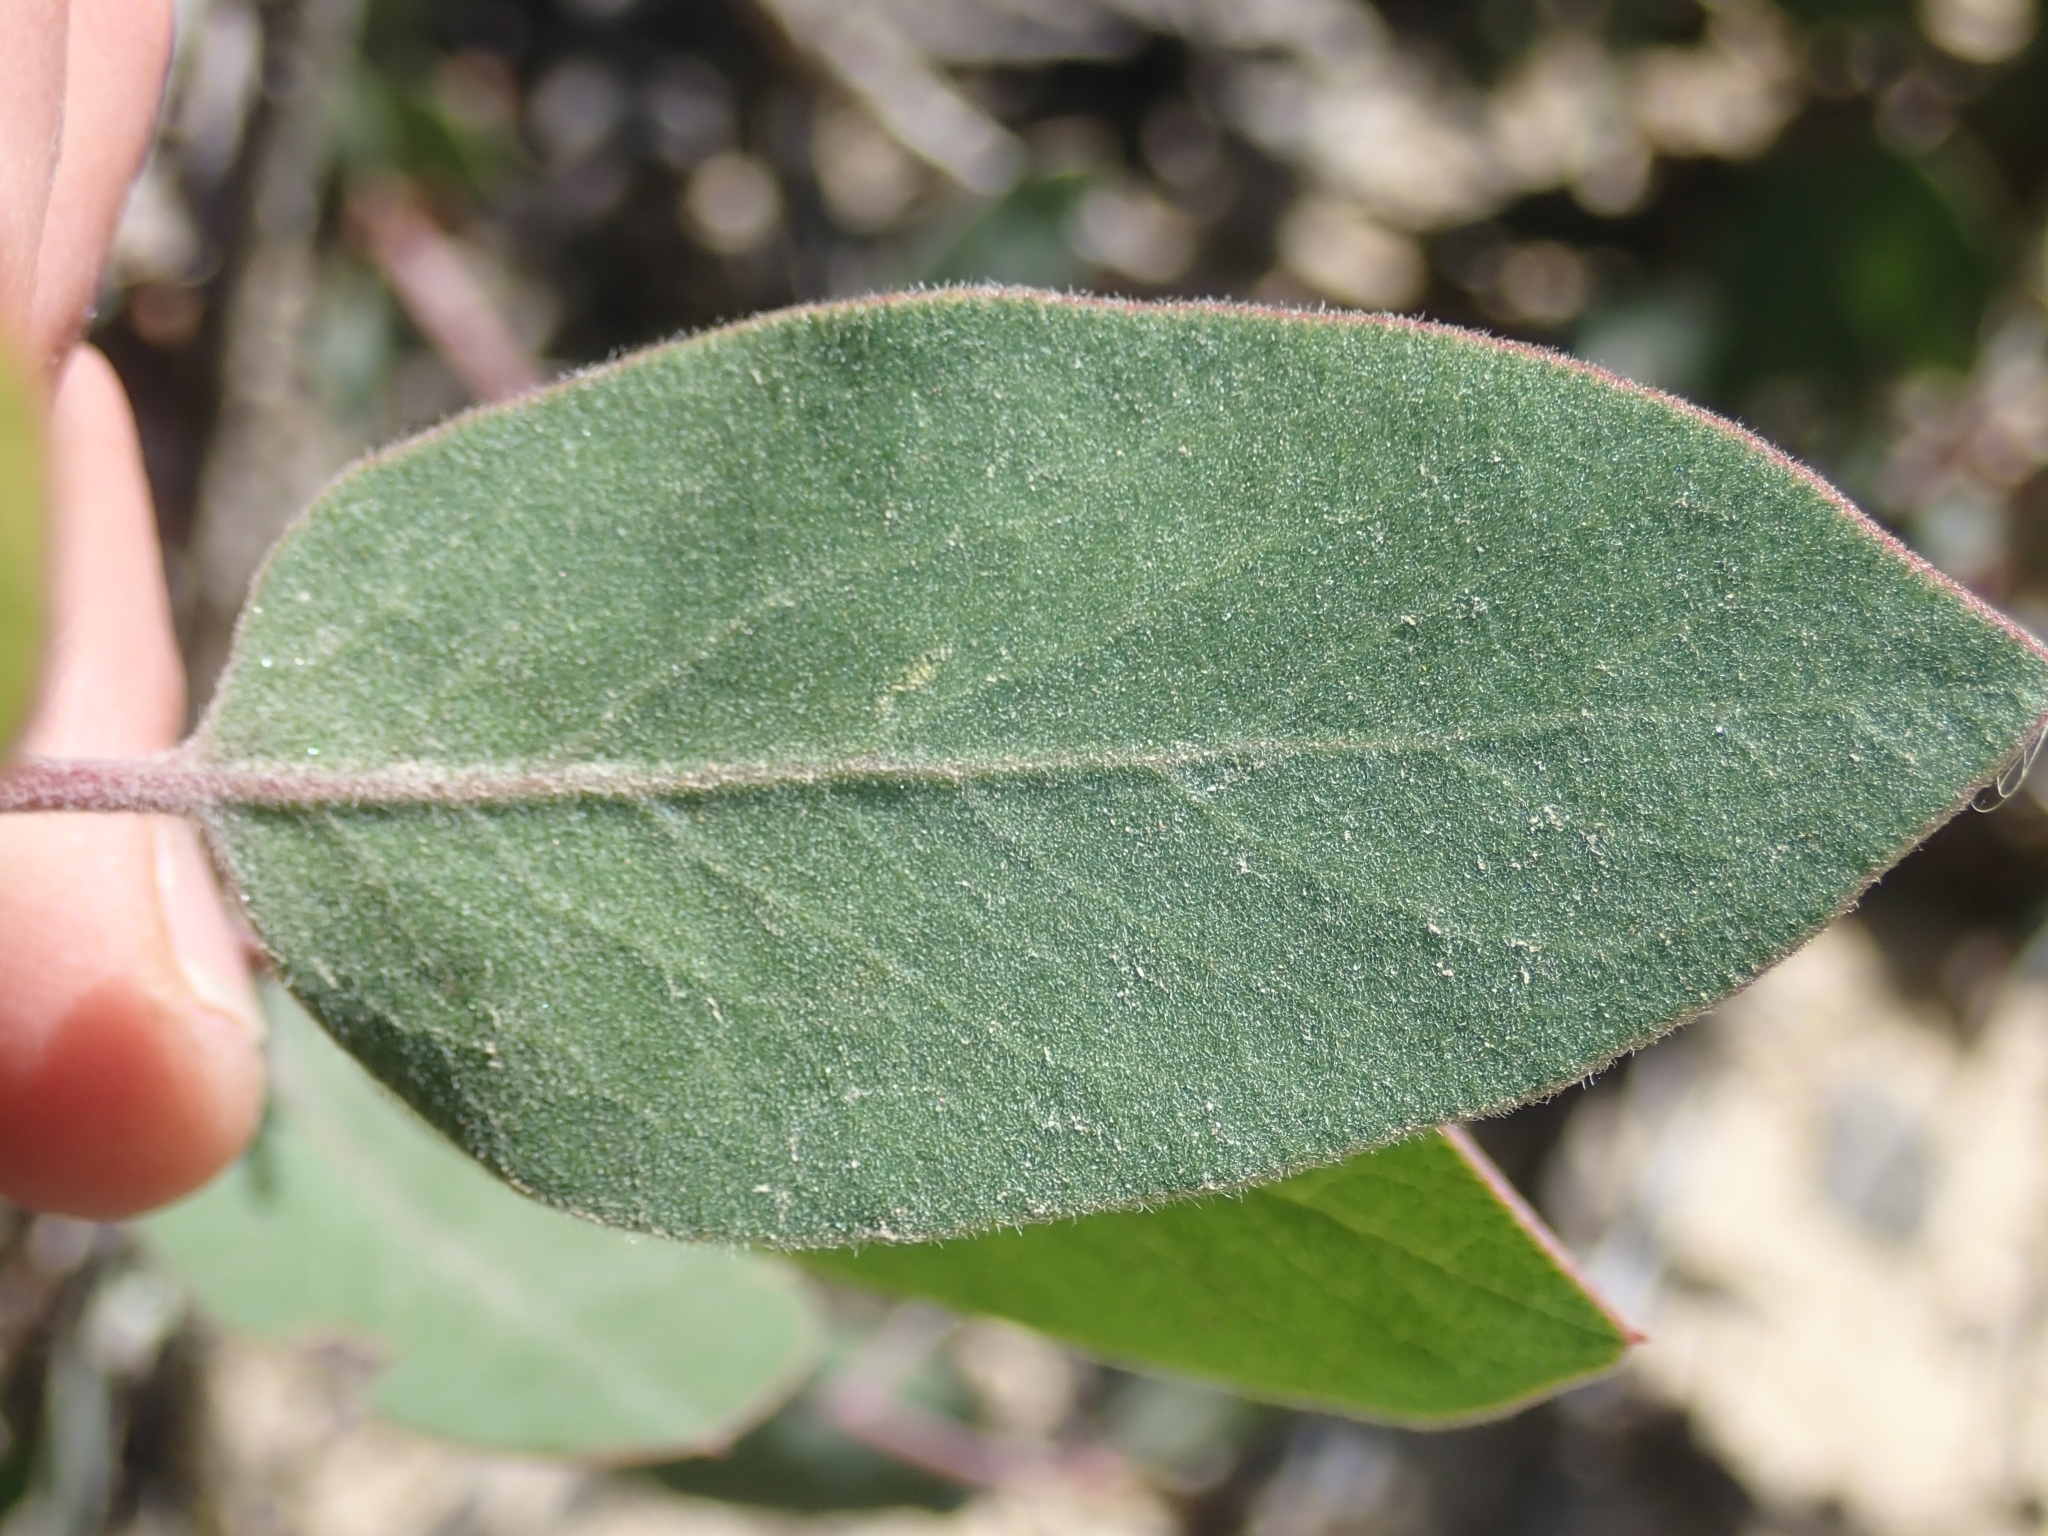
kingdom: Plantae
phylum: Tracheophyta
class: Magnoliopsida
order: Ericales
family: Ericaceae
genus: Arctostaphylos
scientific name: Arctostaphylos glandulosa
